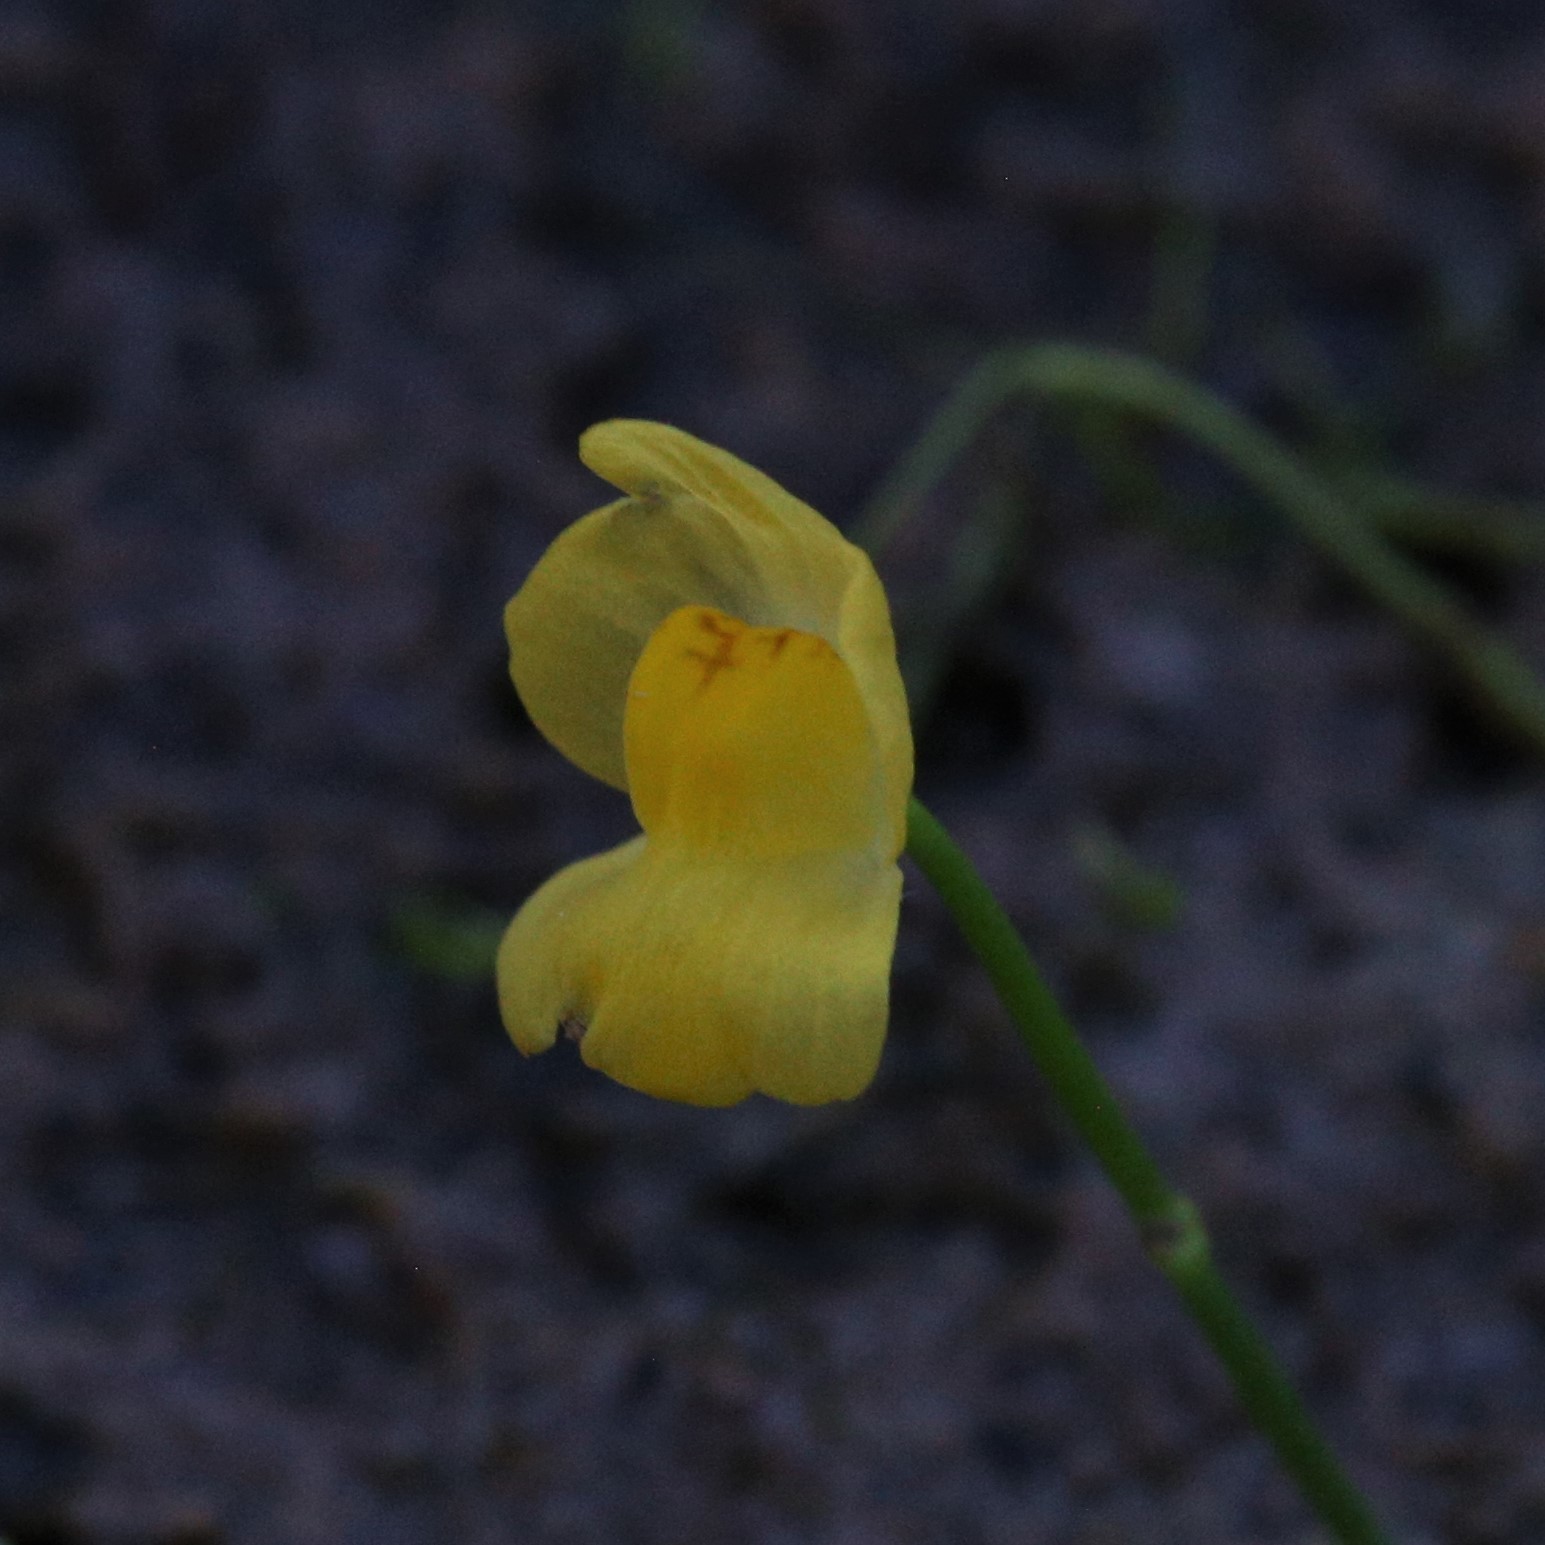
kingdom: Plantae
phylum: Tracheophyta
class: Magnoliopsida
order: Lamiales
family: Lentibulariaceae
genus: Utricularia
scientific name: Utricularia gibba
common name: Humped bladderwort
